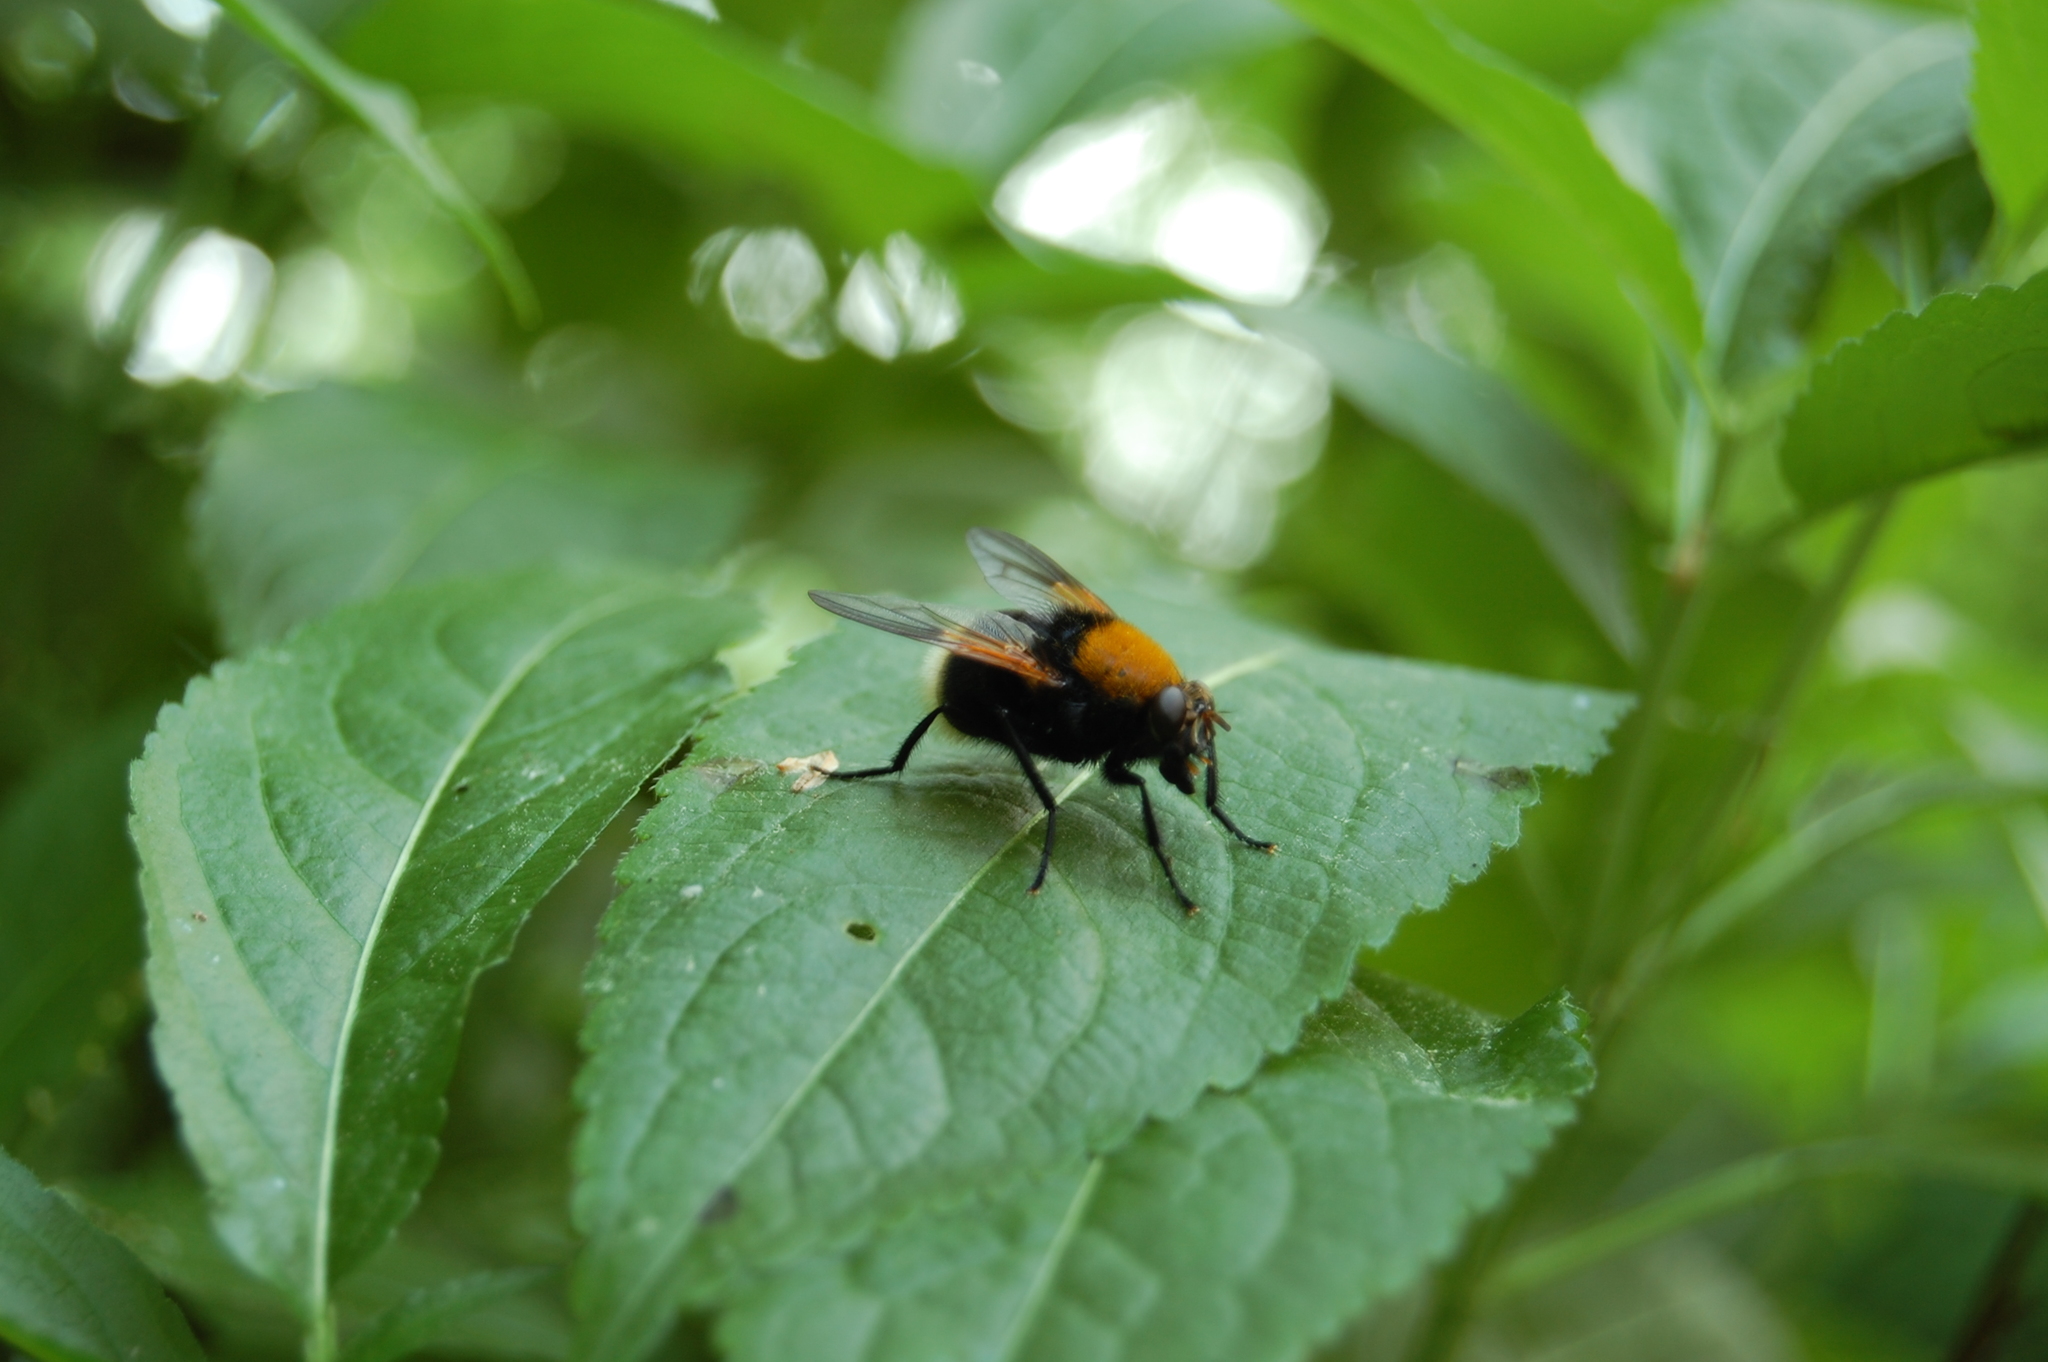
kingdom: Animalia
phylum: Arthropoda
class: Insecta
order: Diptera
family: Muscidae
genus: Mesembrina
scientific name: Mesembrina mystacea
